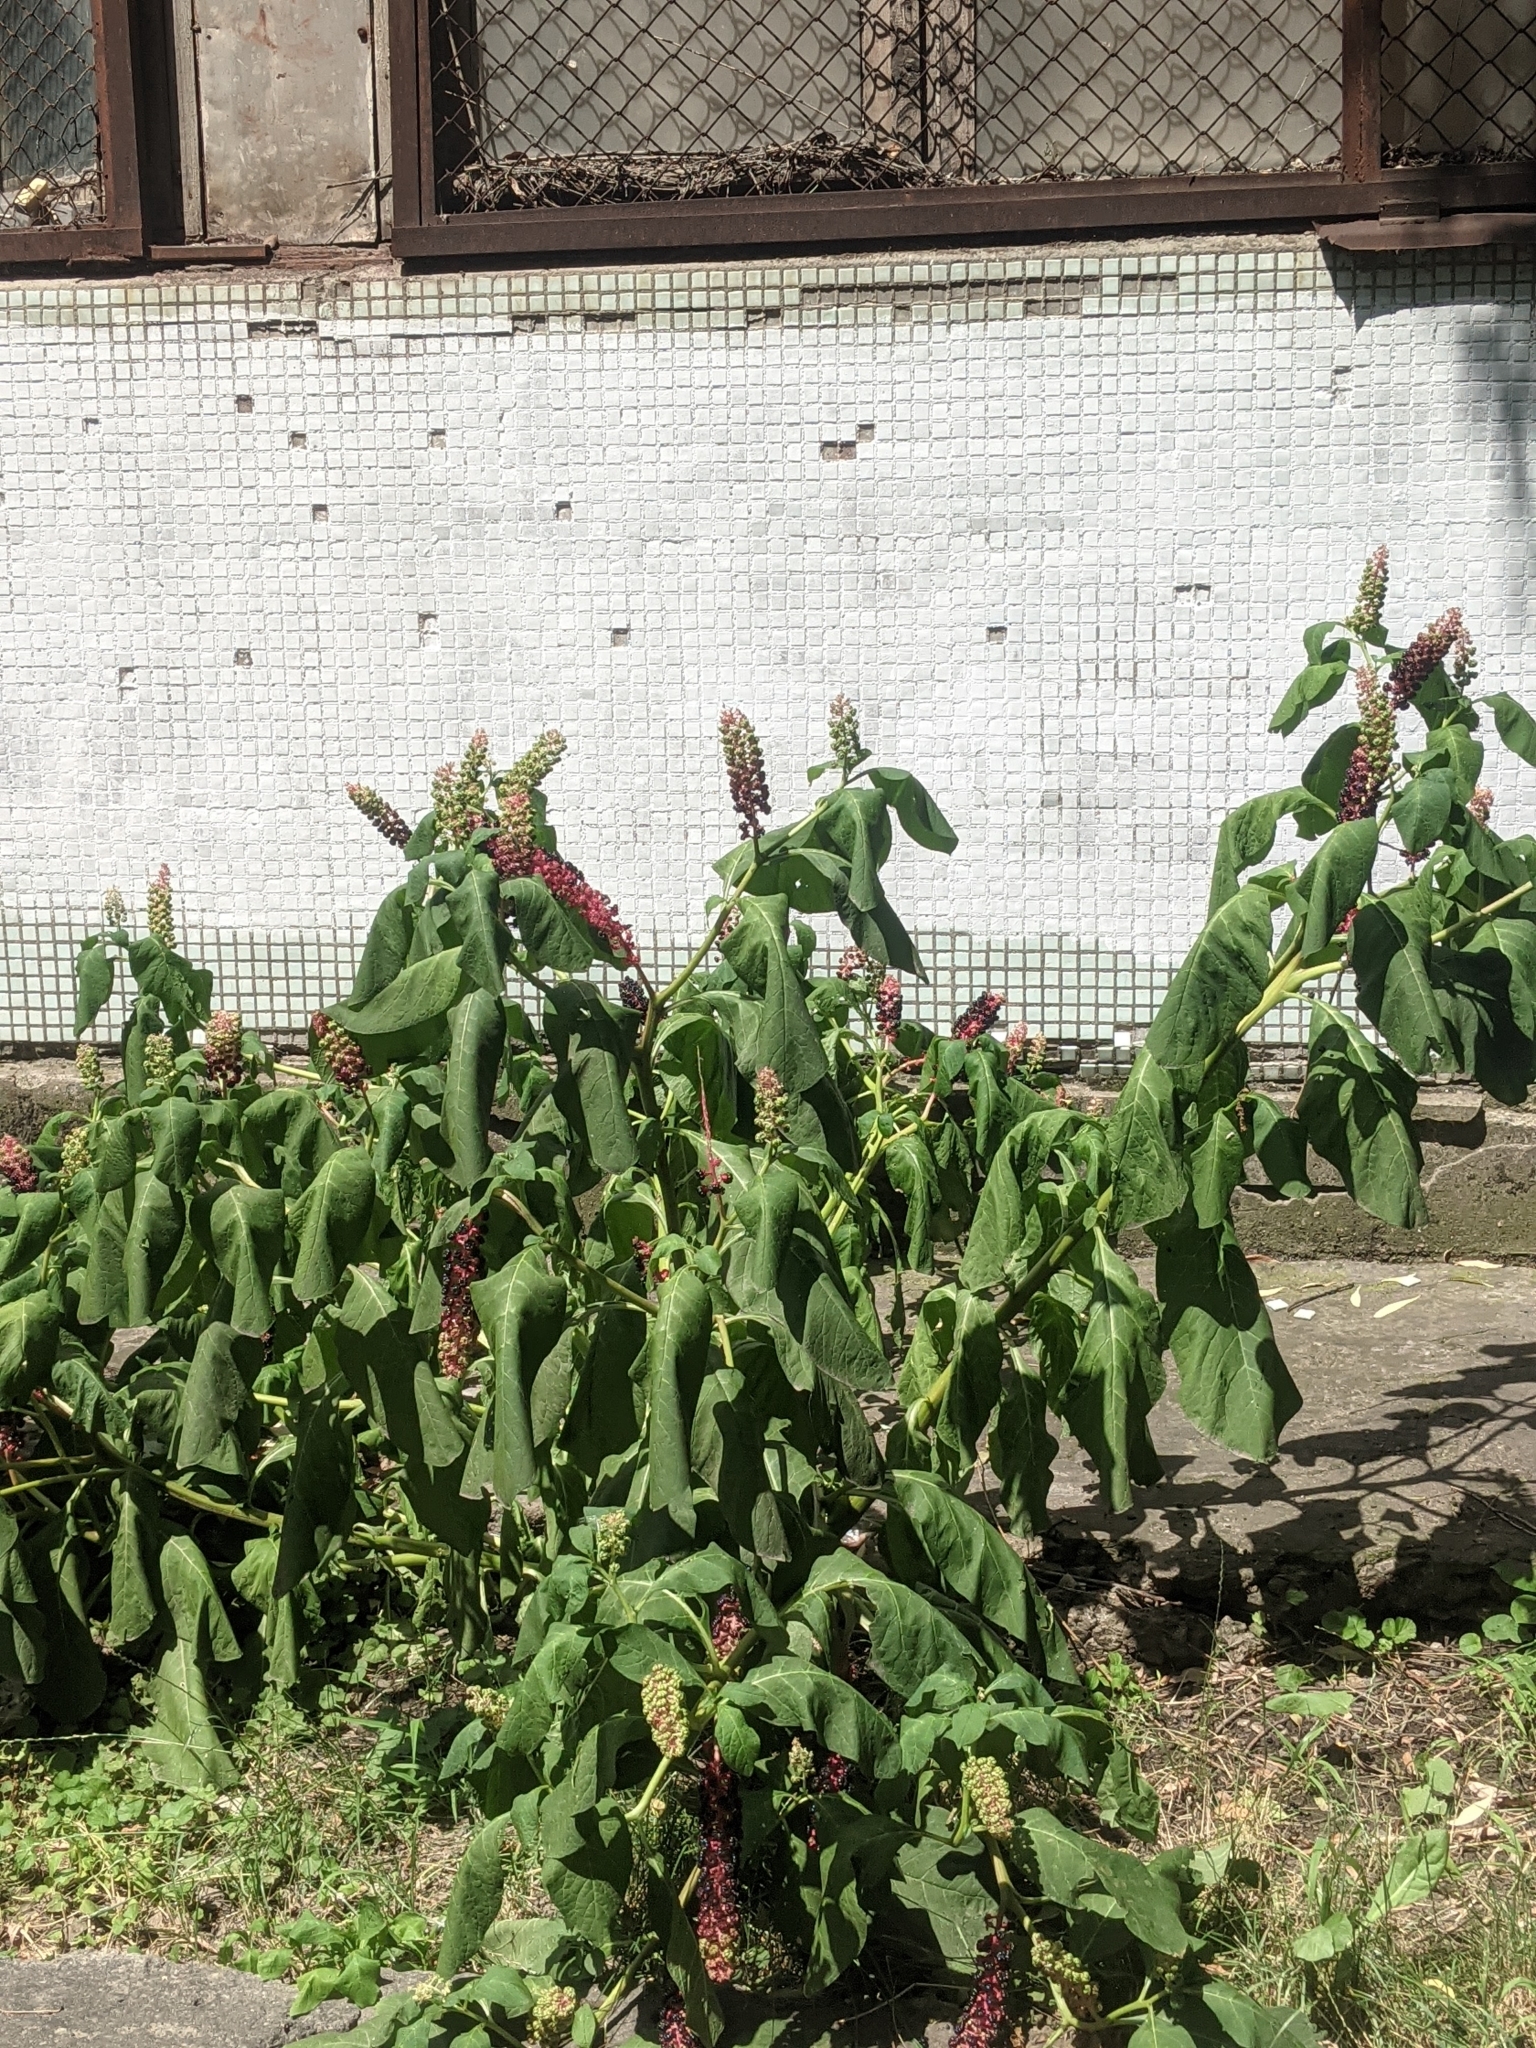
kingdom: Plantae
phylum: Tracheophyta
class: Magnoliopsida
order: Caryophyllales
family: Phytolaccaceae
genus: Phytolacca
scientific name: Phytolacca acinosa
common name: Indian pokeweed
